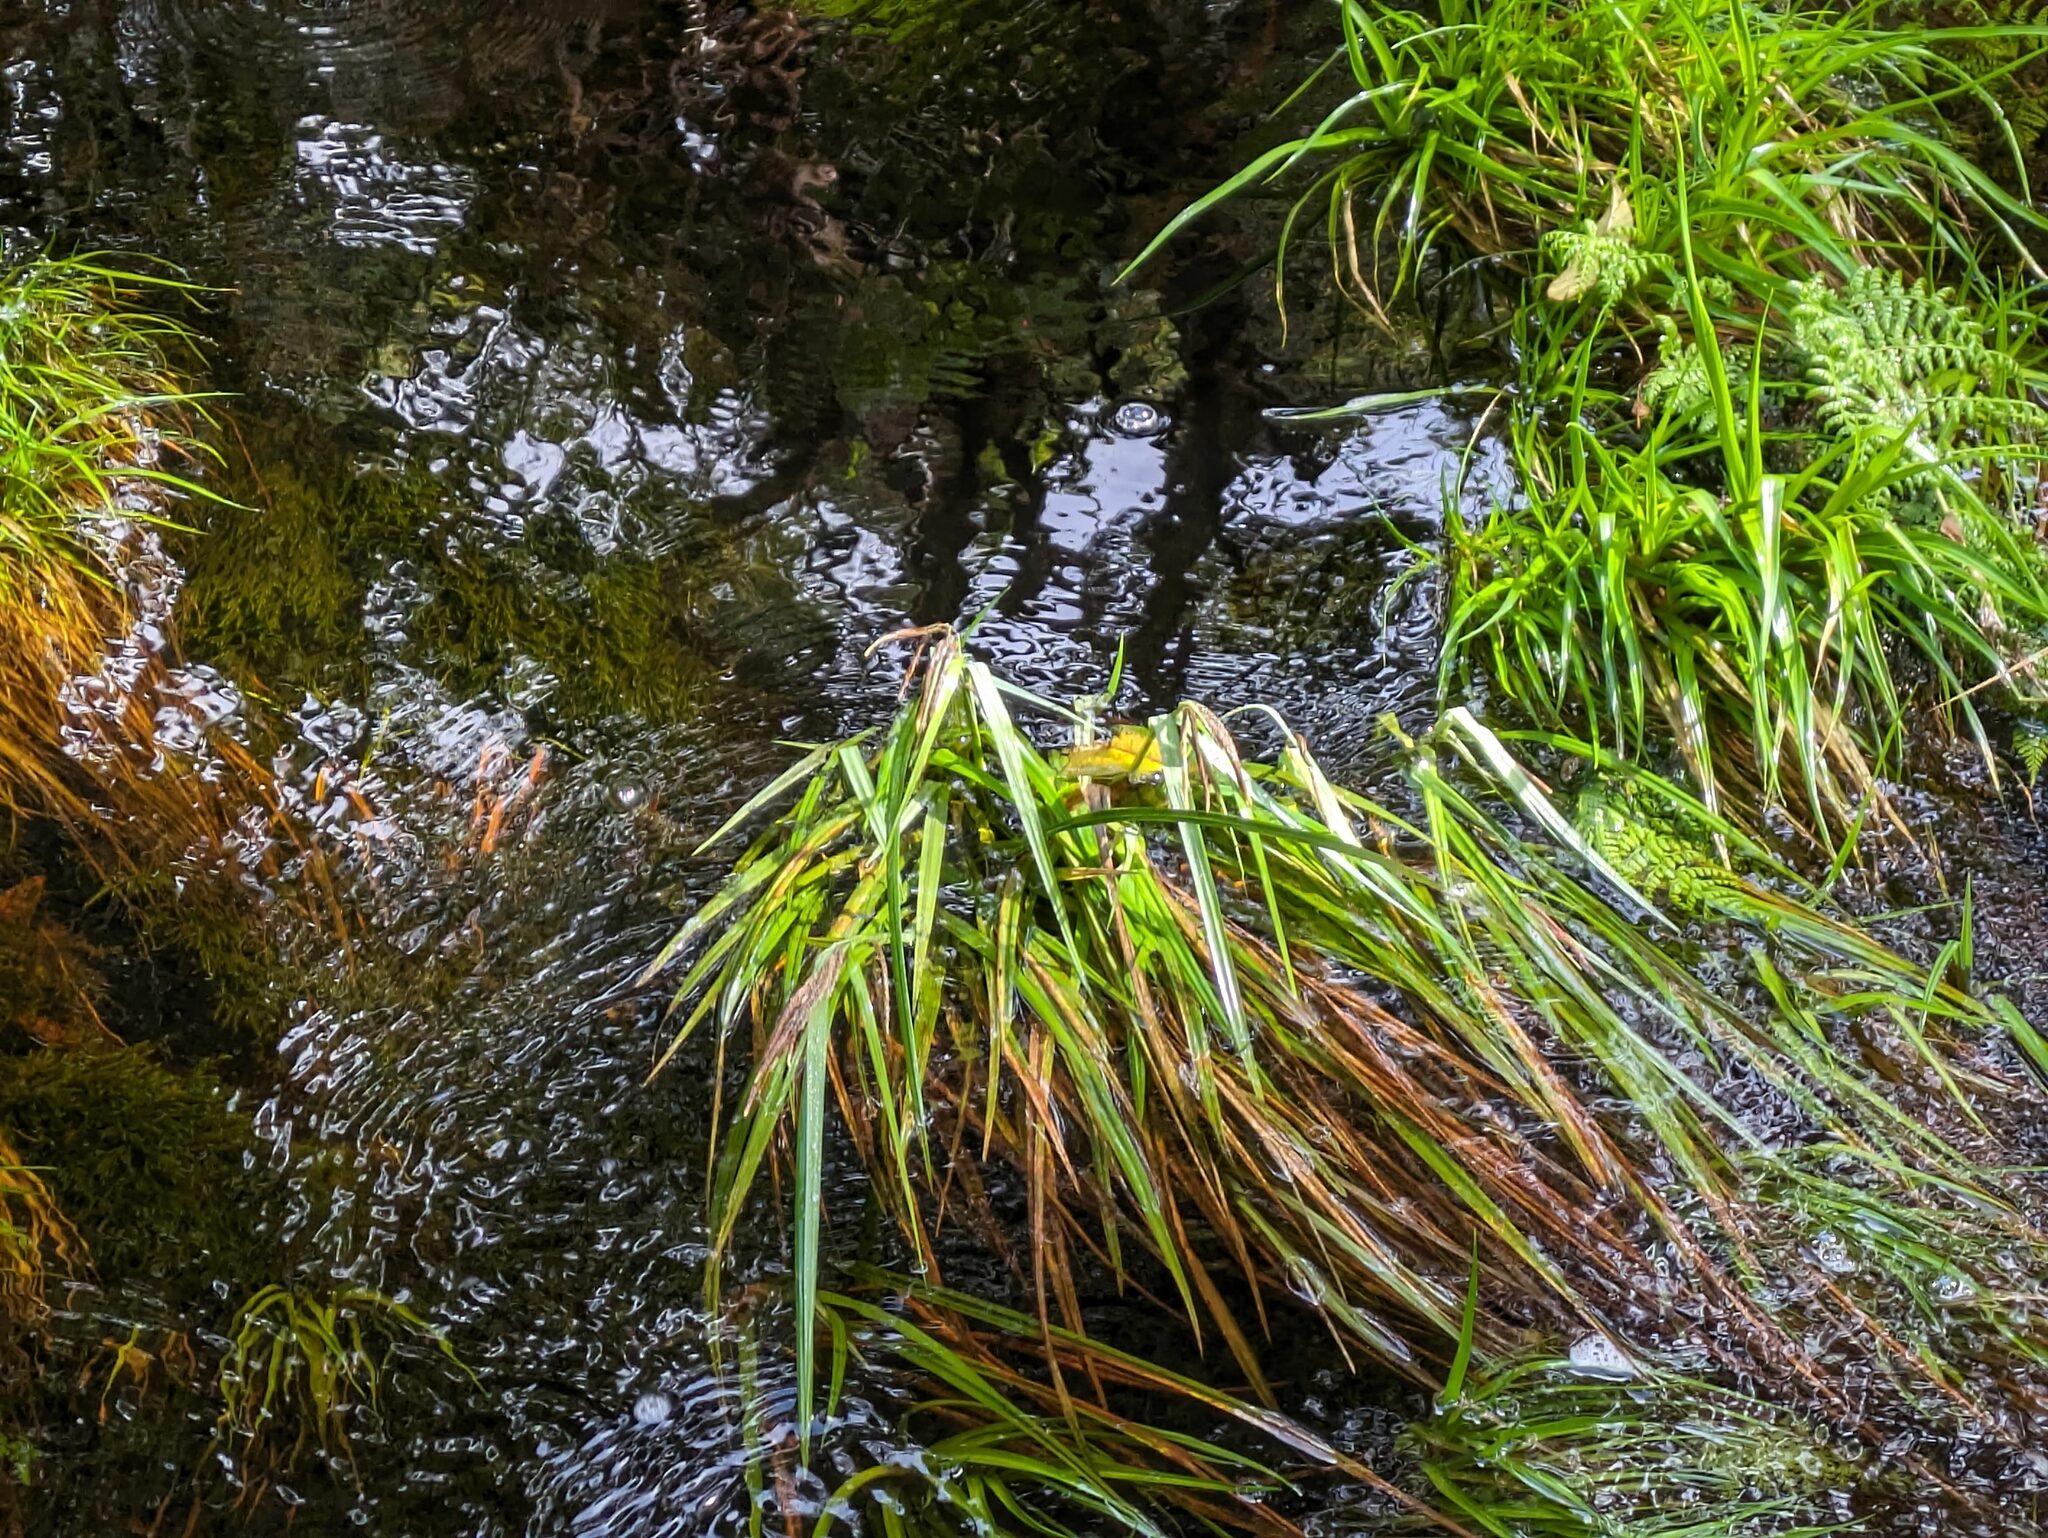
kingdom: Plantae
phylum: Tracheophyta
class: Liliopsida
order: Poales
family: Cyperaceae
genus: Carex
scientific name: Carex alligata
